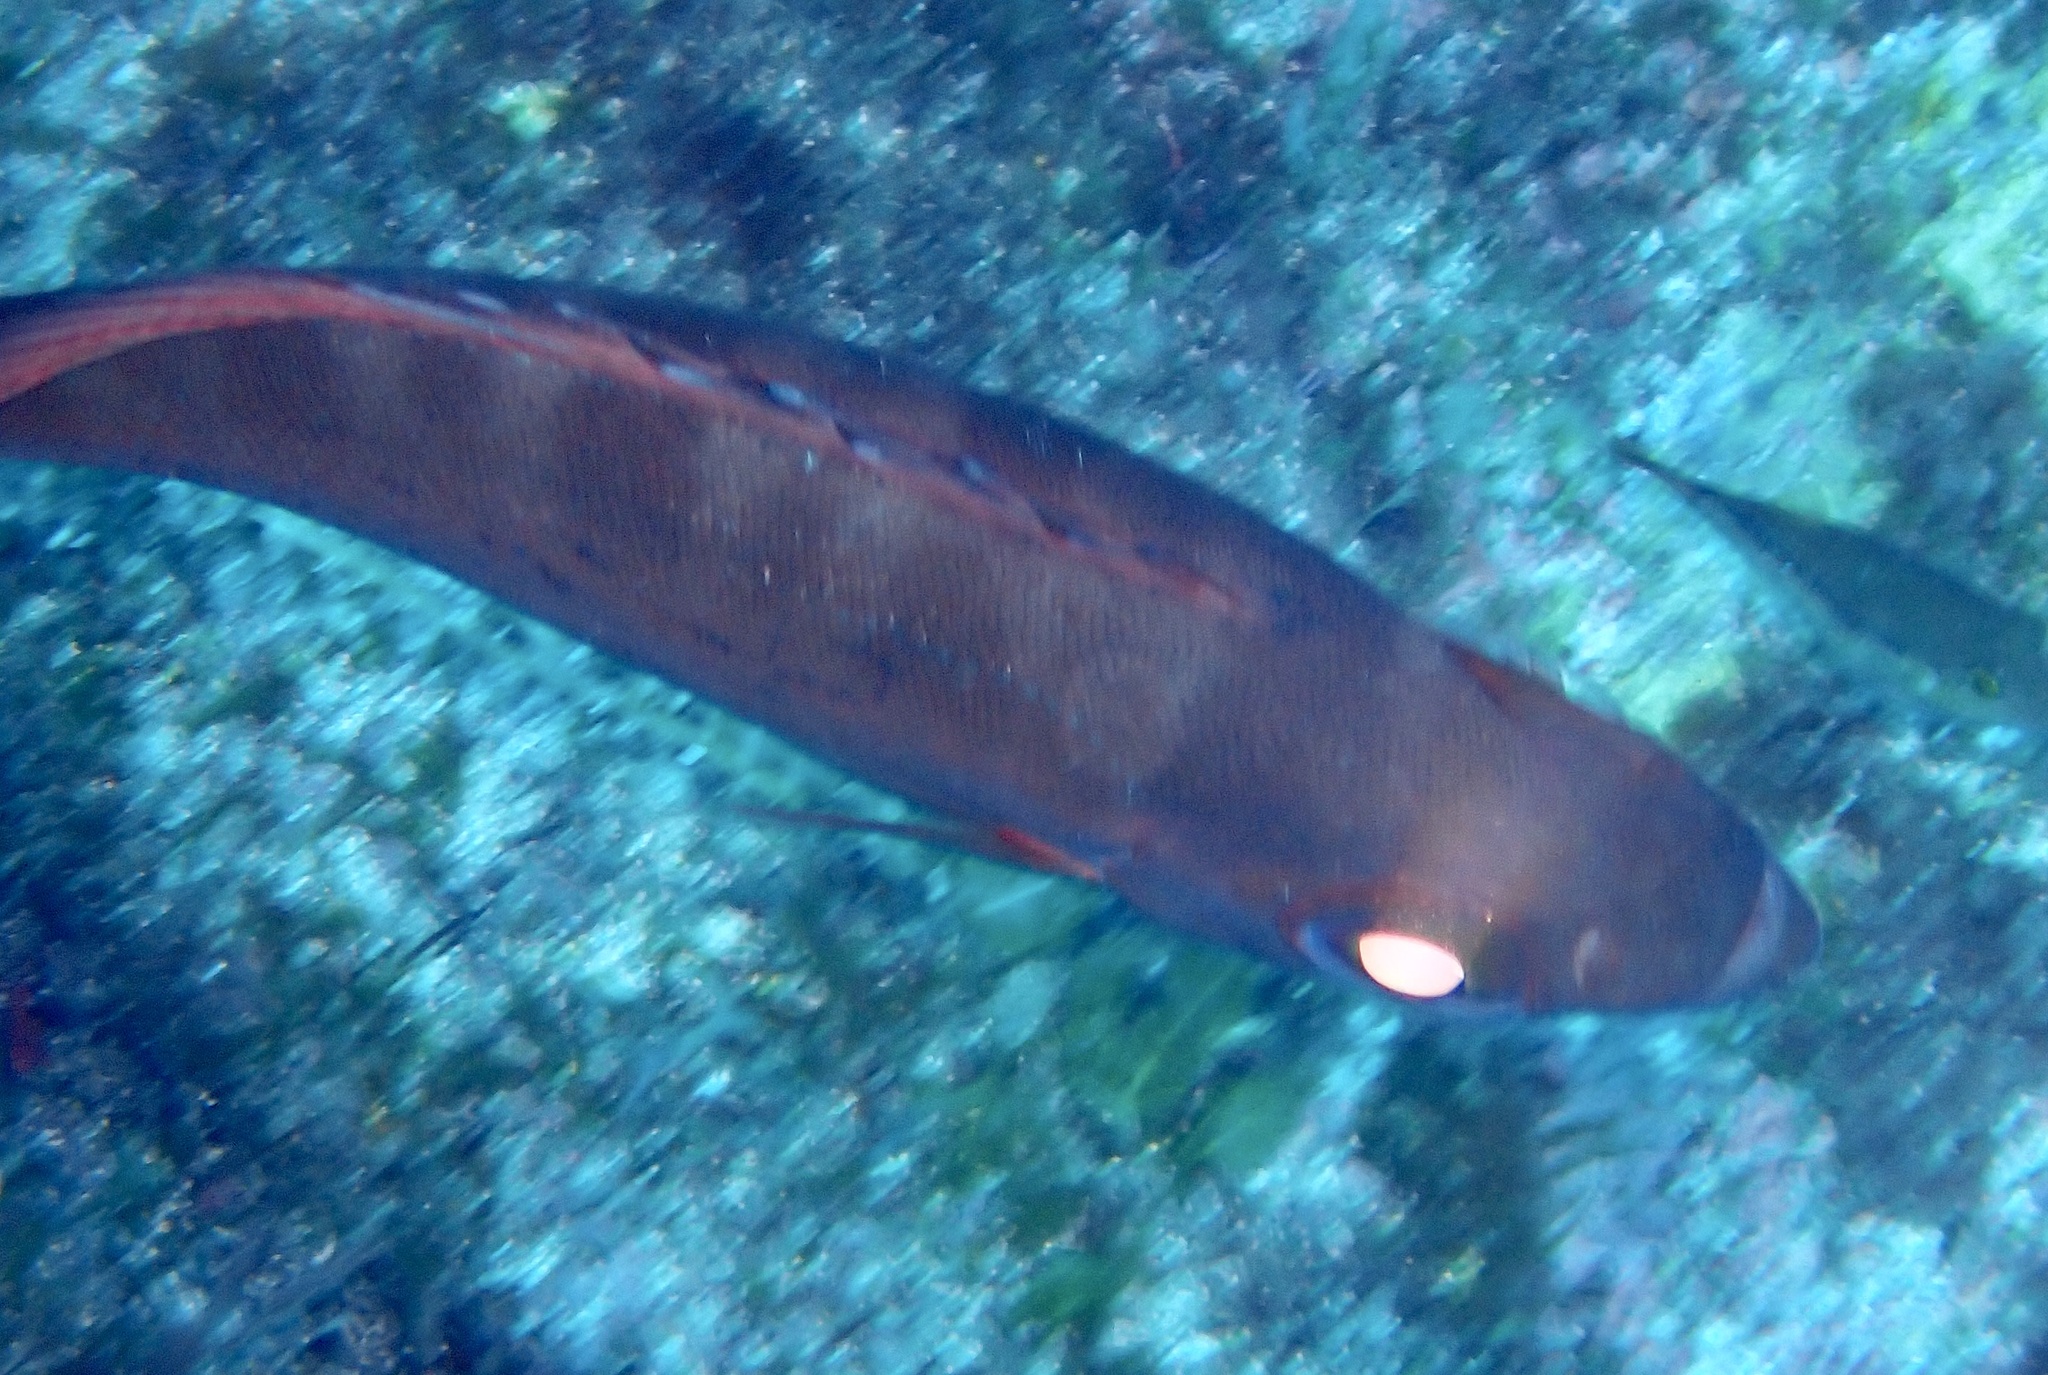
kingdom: Animalia
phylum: Chordata
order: Perciformes
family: Priacanthidae
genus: Heteropriacanthus
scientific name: Heteropriacanthus fulgens
